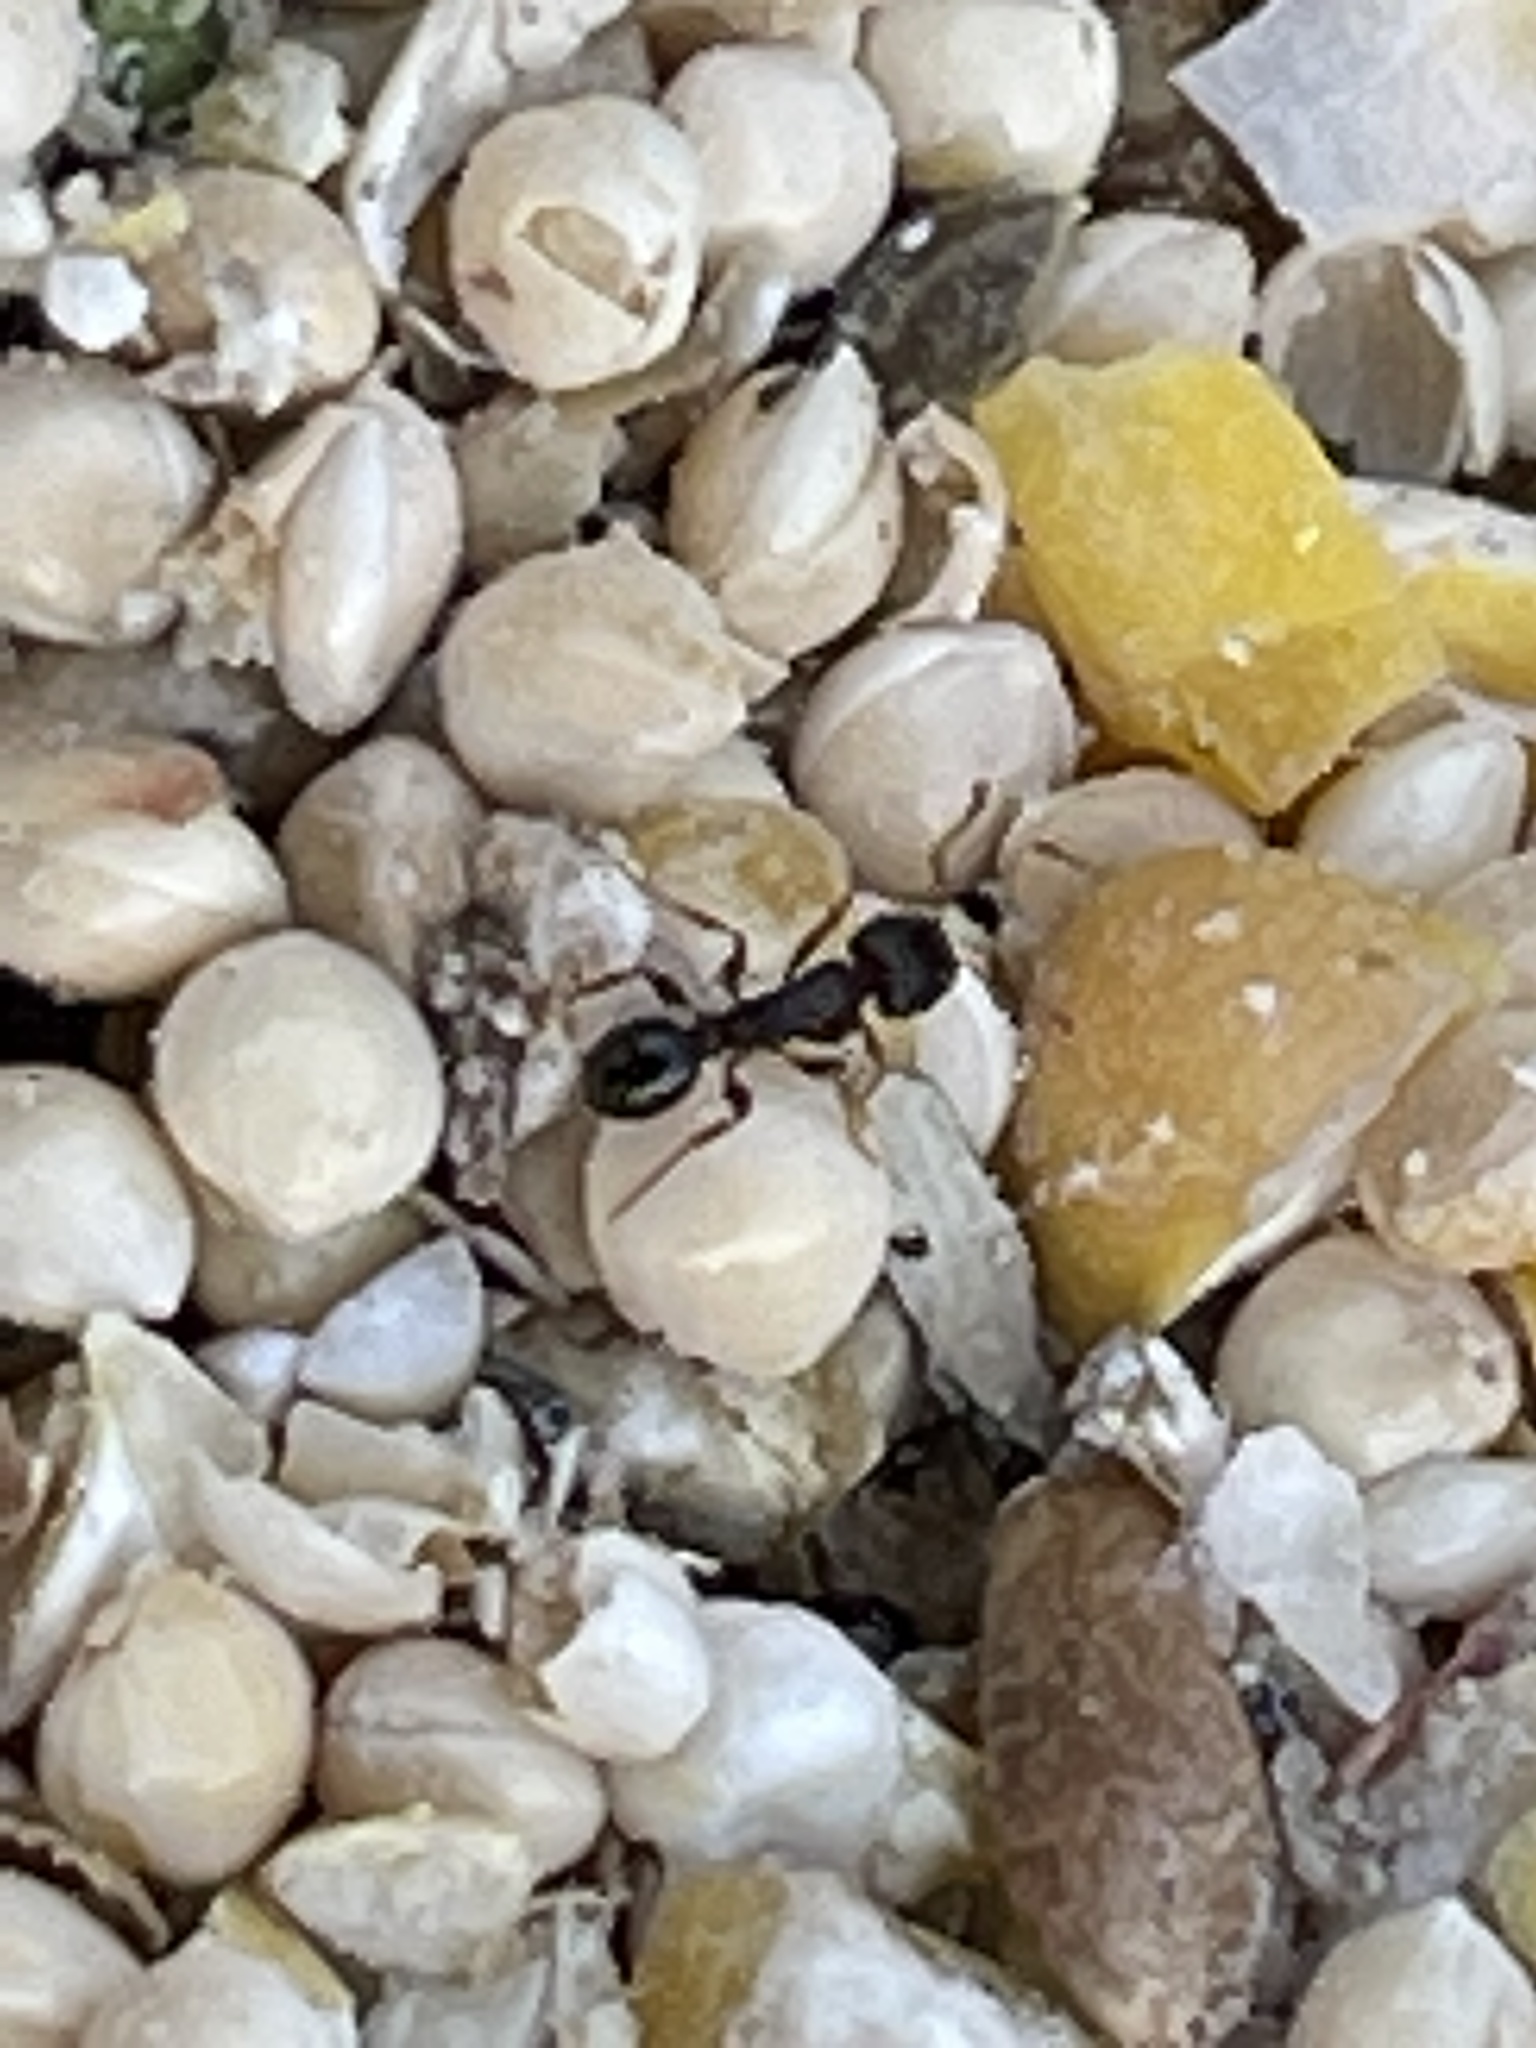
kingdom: Animalia
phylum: Arthropoda
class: Insecta
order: Hymenoptera
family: Formicidae
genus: Tetramorium
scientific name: Tetramorium immigrans
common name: Pavement ant
